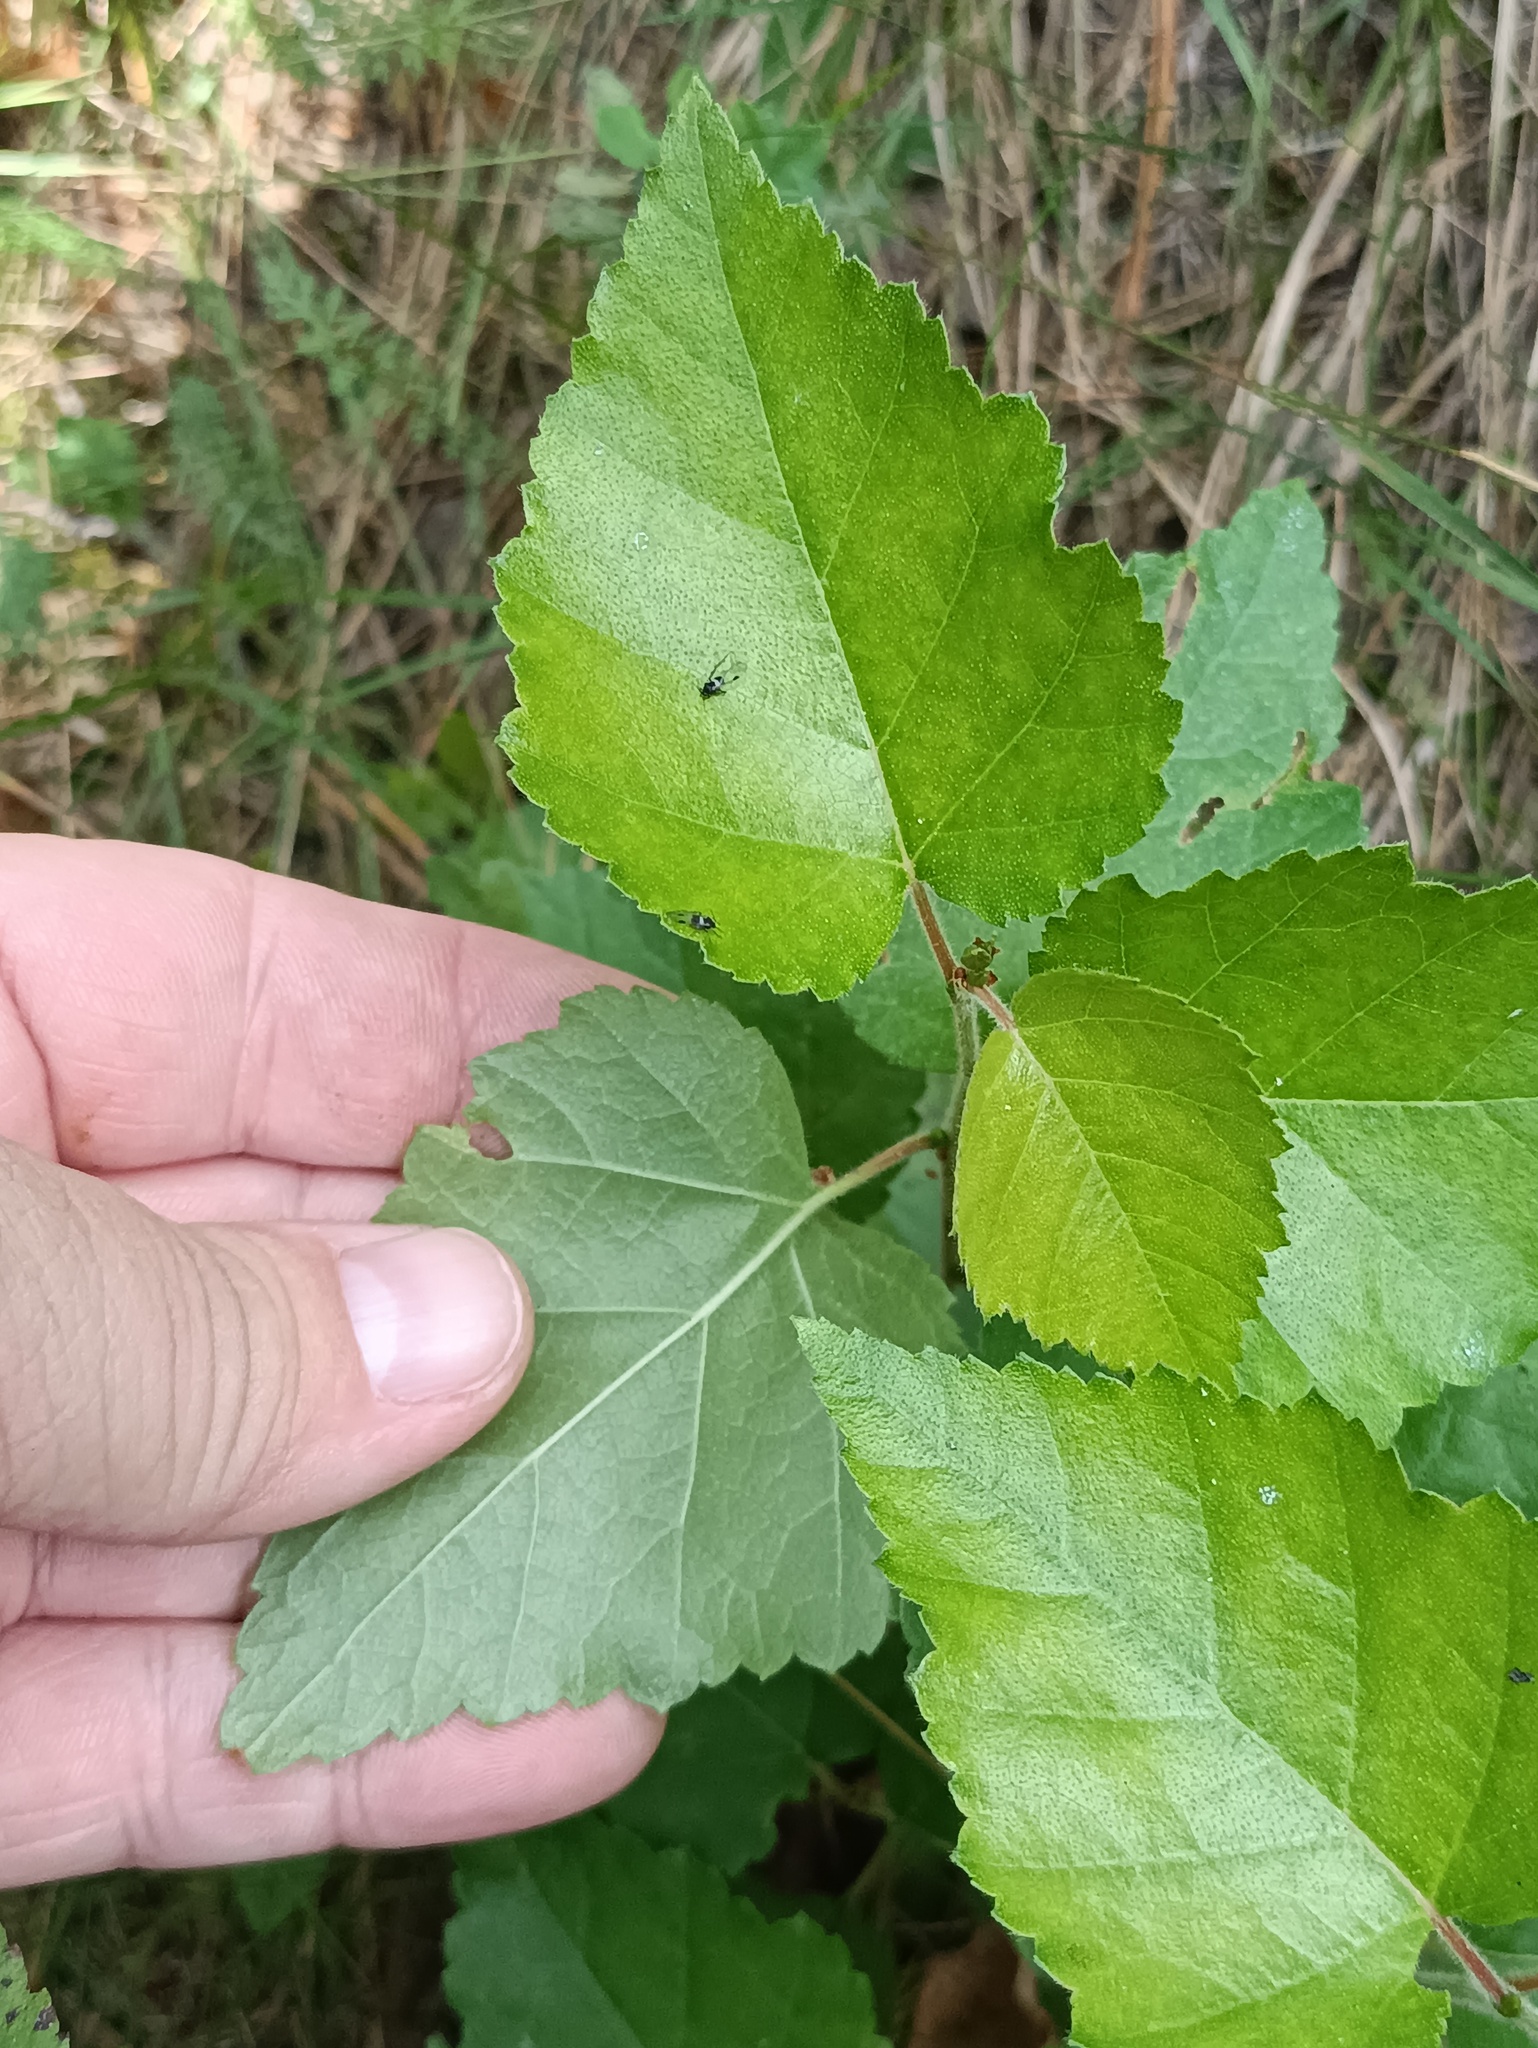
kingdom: Plantae
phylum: Tracheophyta
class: Magnoliopsida
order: Fagales
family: Betulaceae
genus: Betula
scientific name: Betula pubescens
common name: Downy birch
